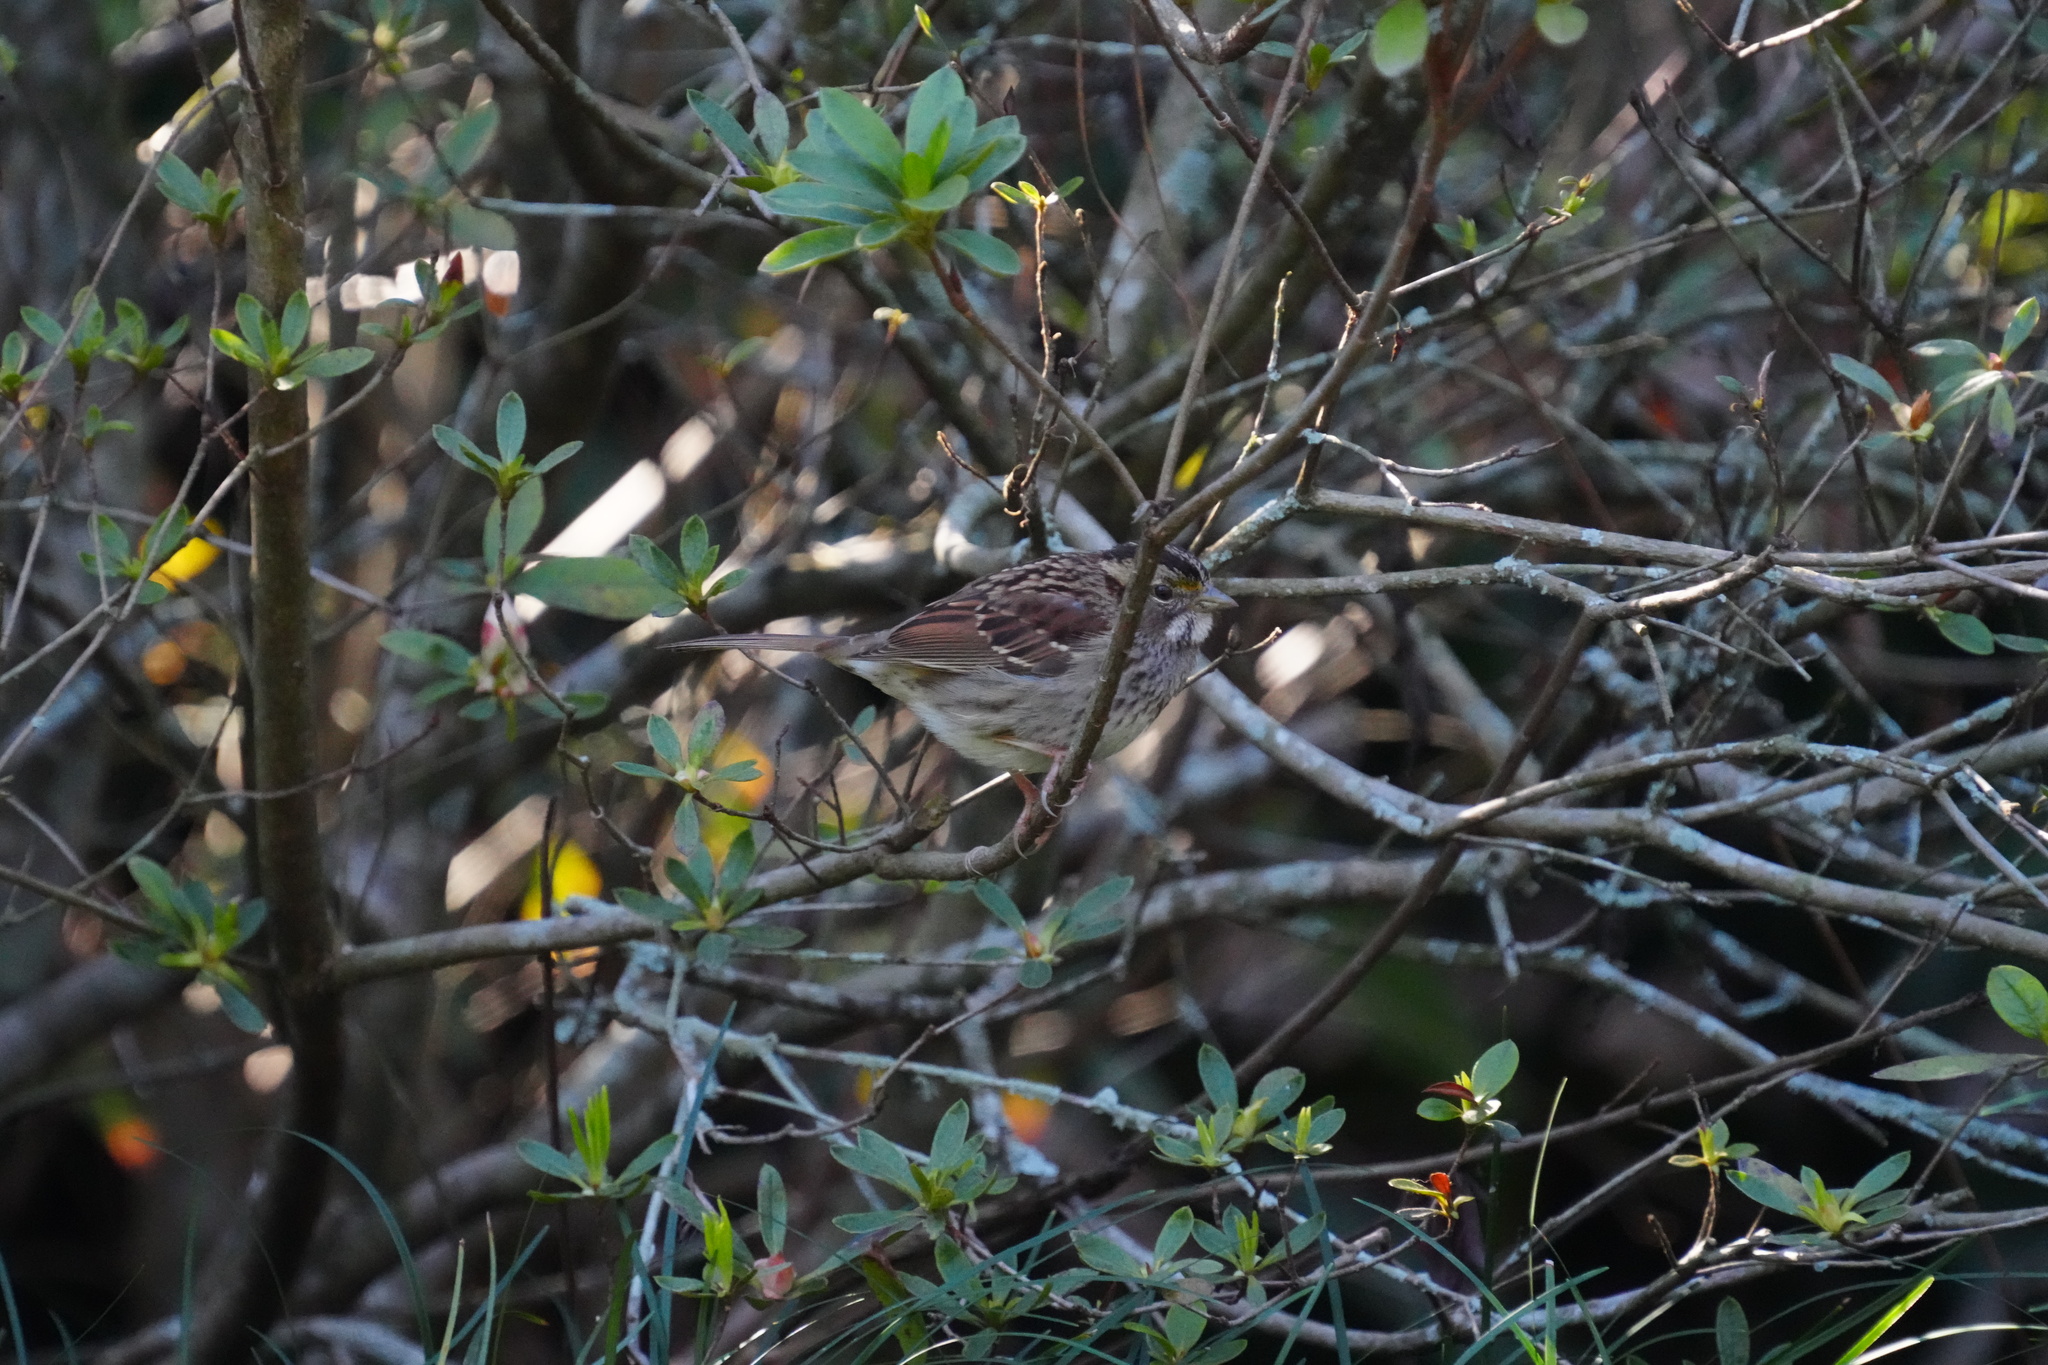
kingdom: Animalia
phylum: Chordata
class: Aves
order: Passeriformes
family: Passerellidae
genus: Zonotrichia
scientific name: Zonotrichia albicollis
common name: White-throated sparrow
